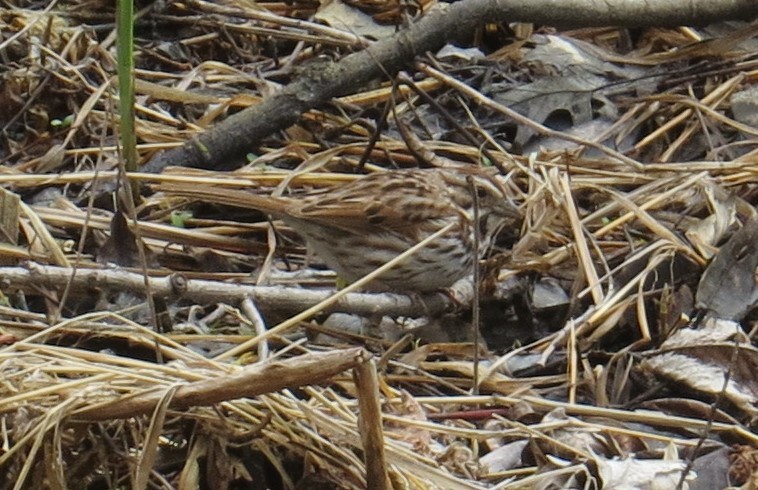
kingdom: Animalia
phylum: Chordata
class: Aves
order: Passeriformes
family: Passerellidae
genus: Melospiza
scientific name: Melospiza melodia
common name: Song sparrow
